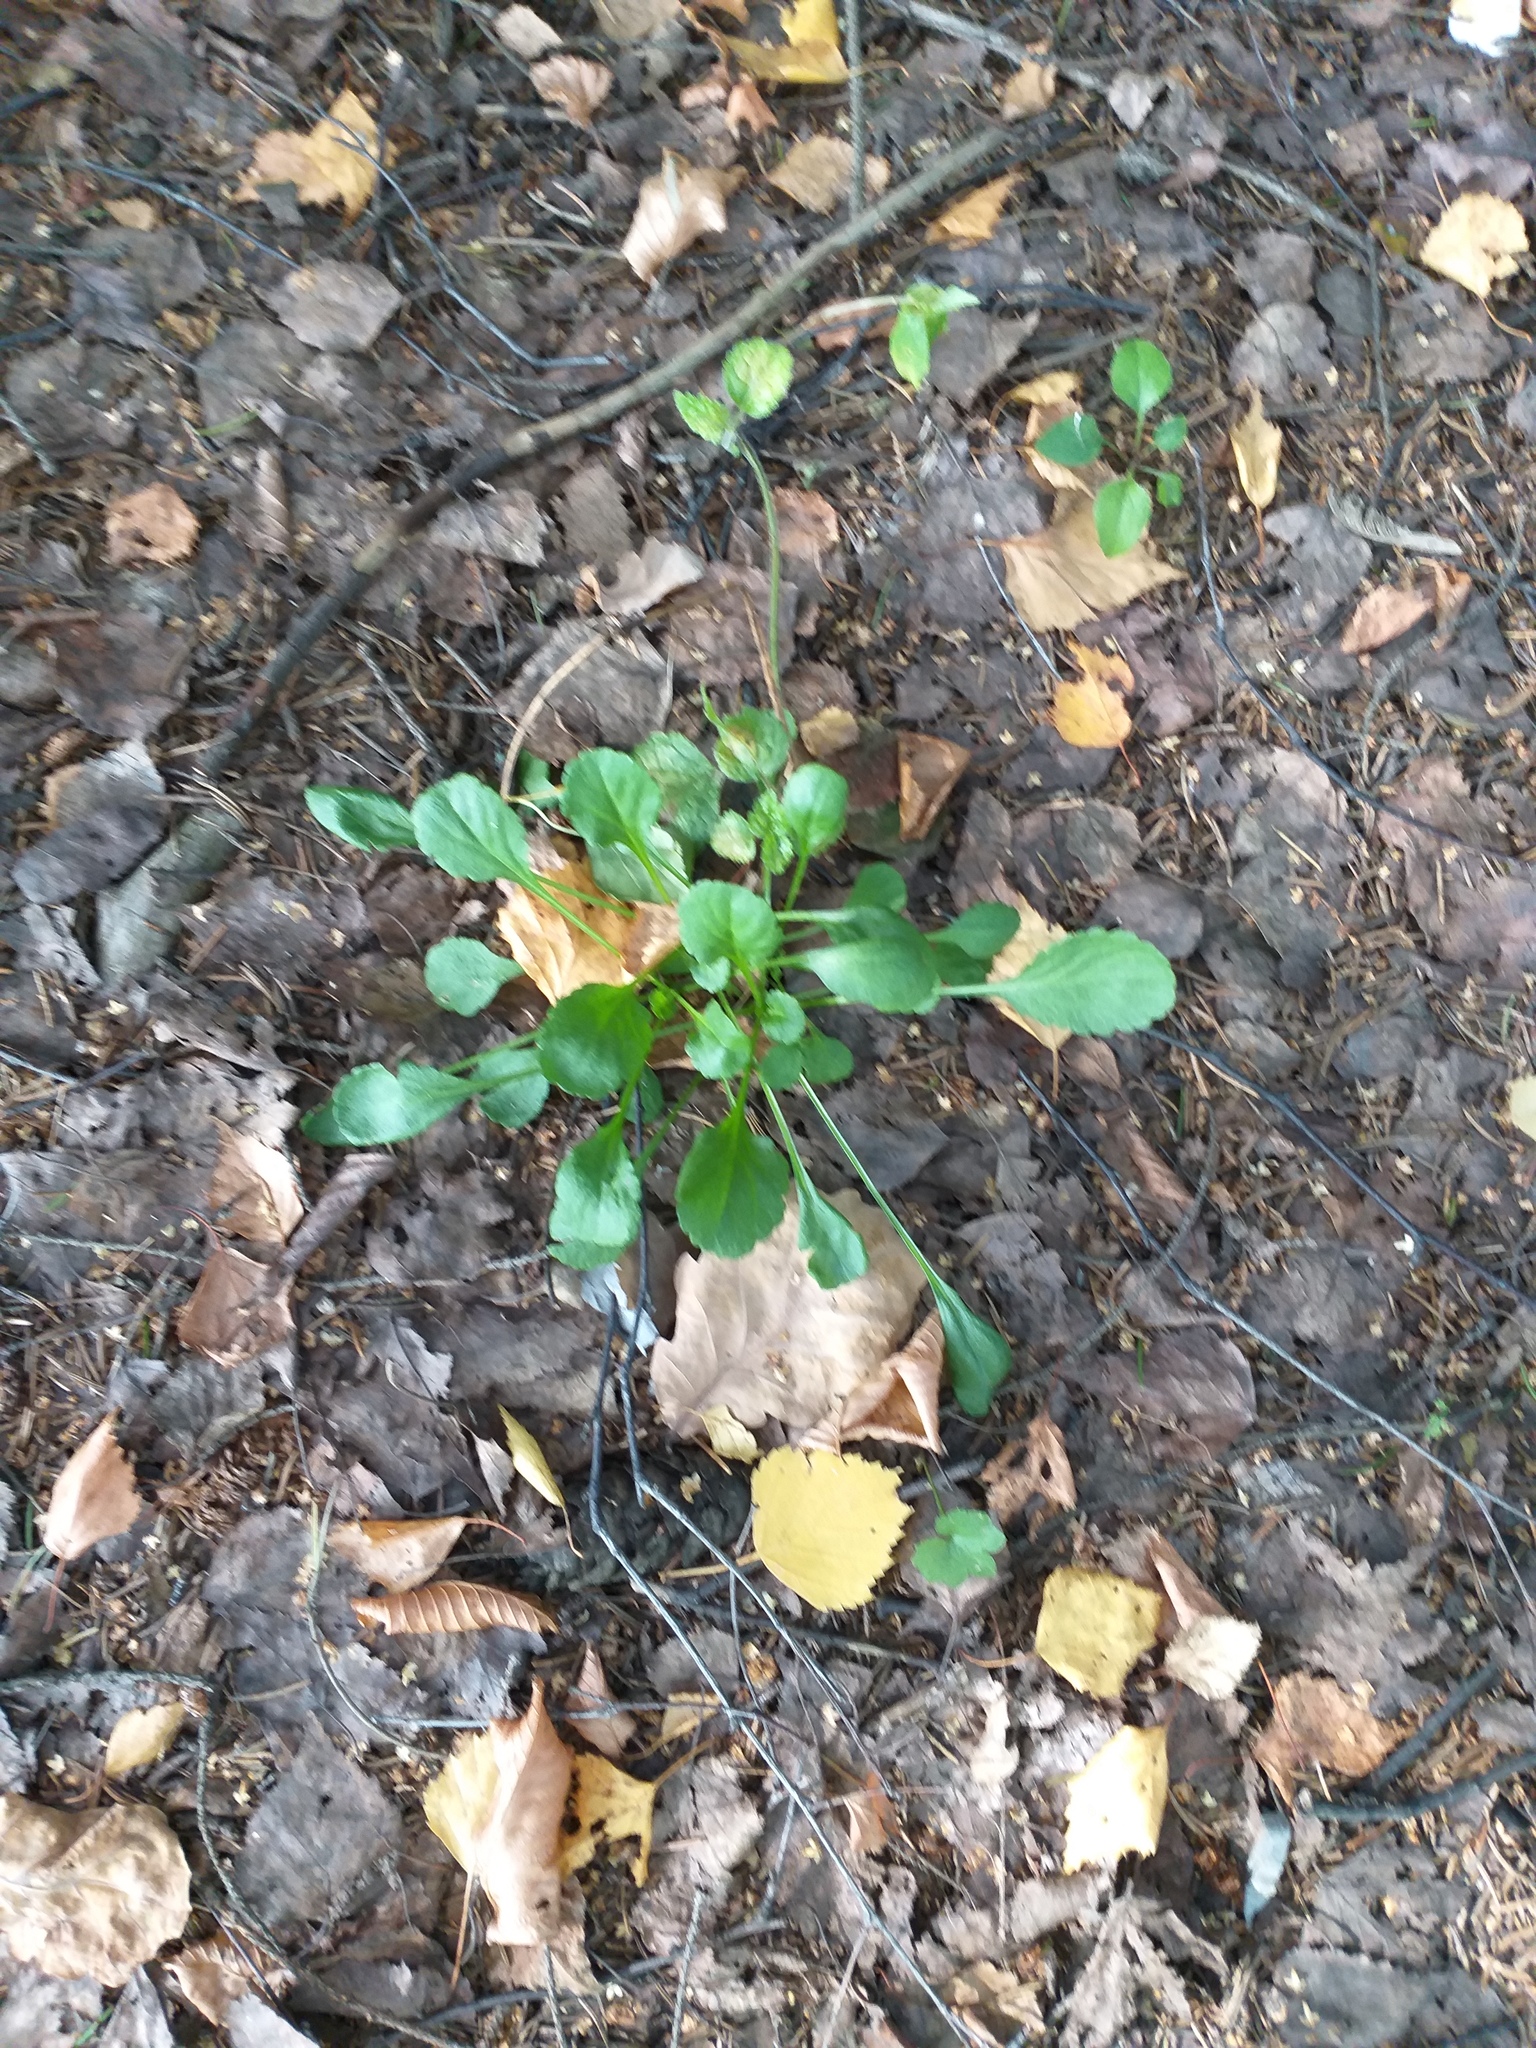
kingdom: Plantae
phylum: Tracheophyta
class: Magnoliopsida
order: Asterales
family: Asteraceae
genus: Leucanthemum
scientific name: Leucanthemum vulgare
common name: Oxeye daisy
